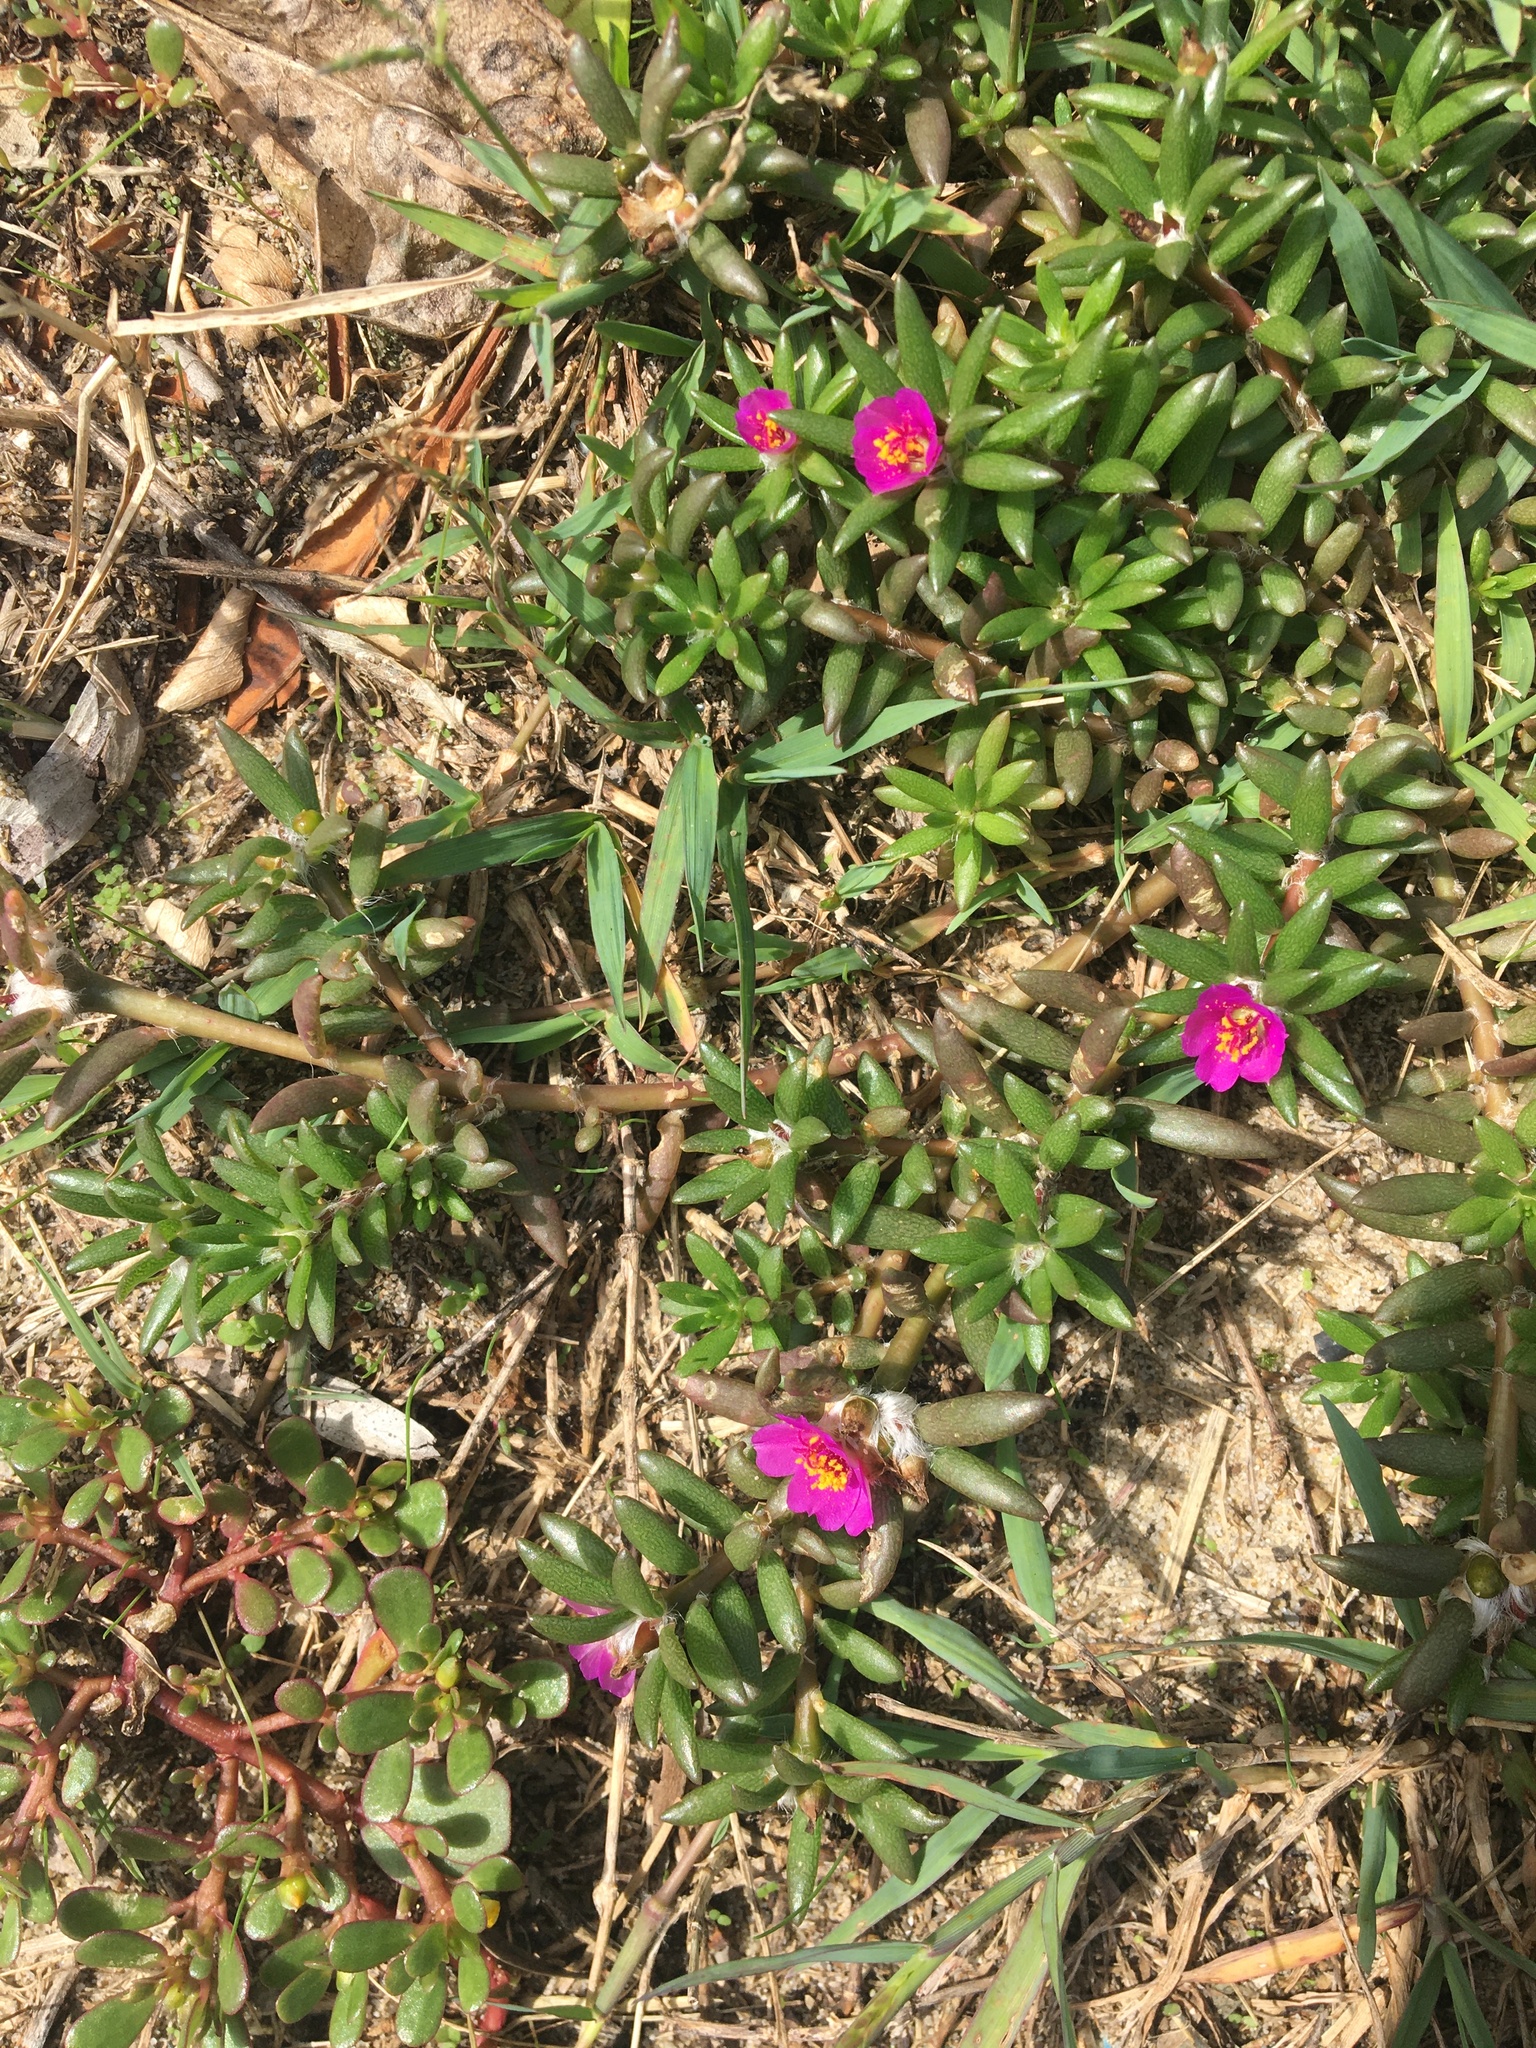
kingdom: Plantae
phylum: Tracheophyta
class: Magnoliopsida
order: Caryophyllales
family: Portulacaceae
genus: Portulaca
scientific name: Portulaca pilosa
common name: Kiss me quick
